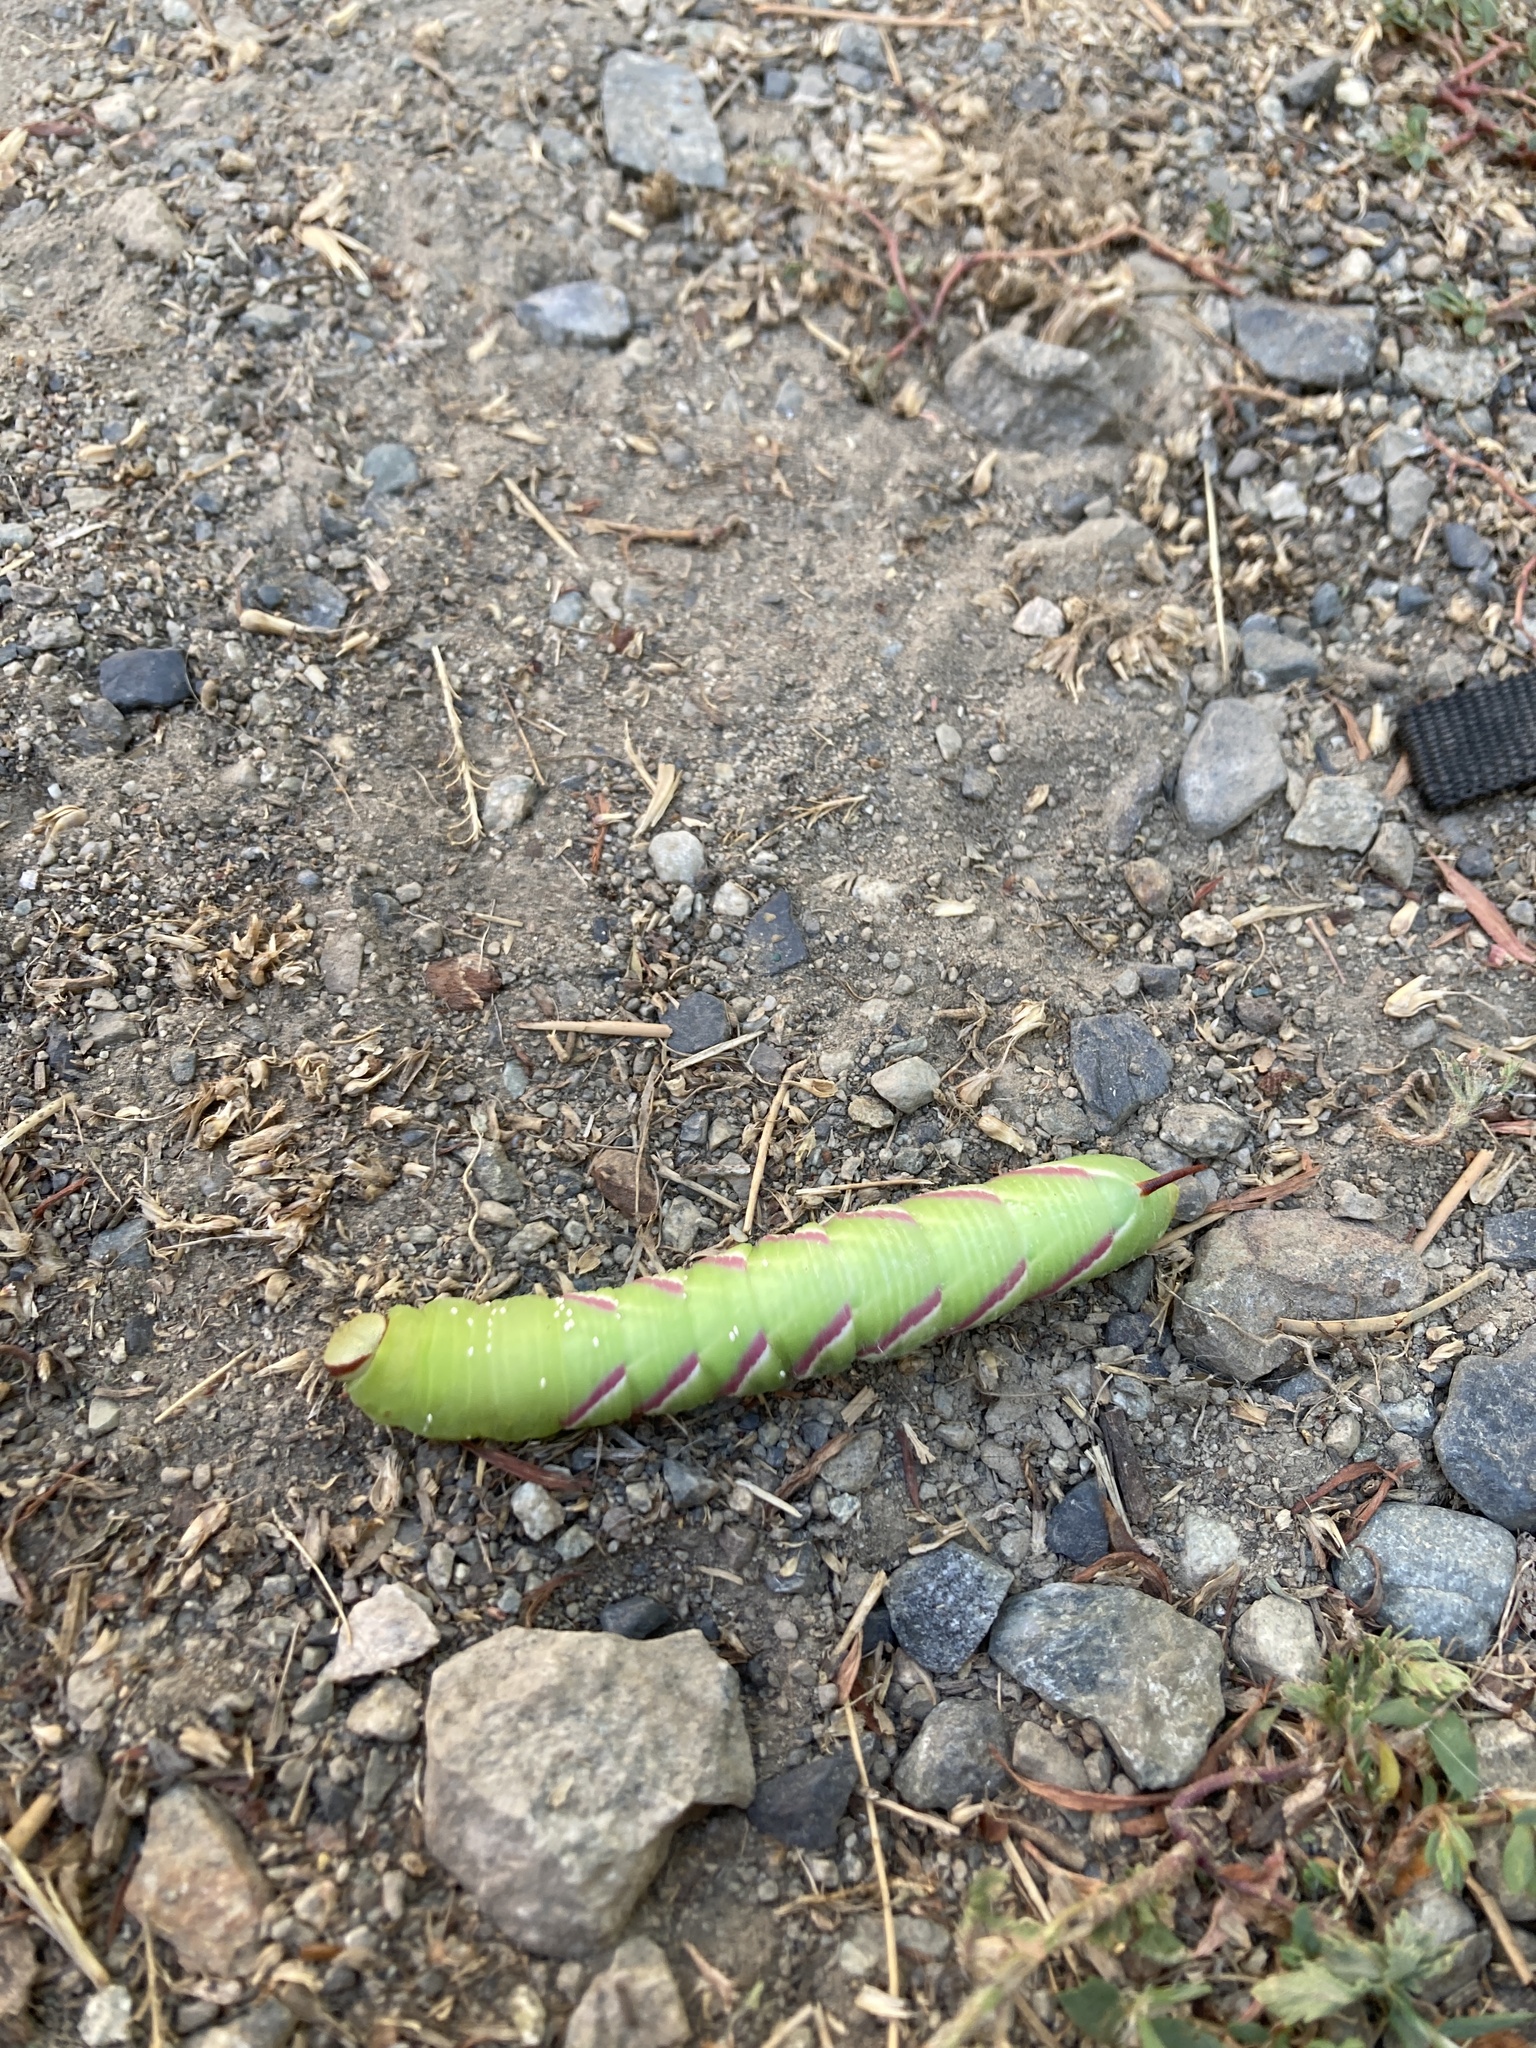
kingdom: Animalia
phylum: Arthropoda
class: Insecta
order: Lepidoptera
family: Sphingidae
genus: Sphinx
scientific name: Sphinx drupiferarum
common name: Wild cherry sphinx
